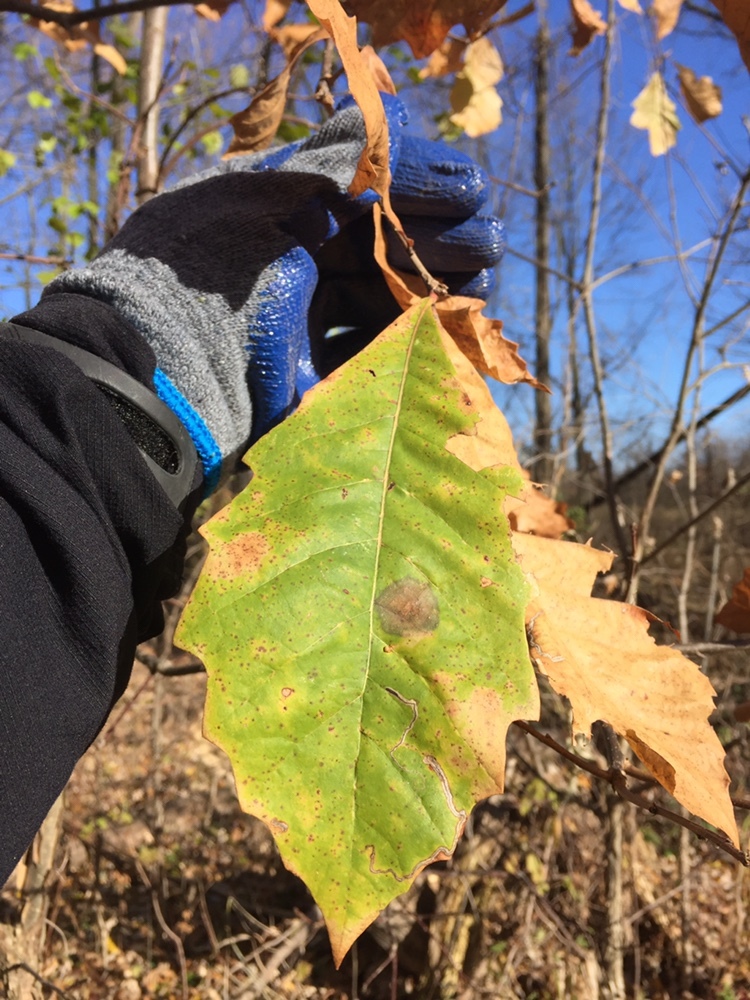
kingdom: Plantae
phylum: Tracheophyta
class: Magnoliopsida
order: Fagales
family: Fagaceae
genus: Quercus
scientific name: Quercus bicolor
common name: Swamp white oak
